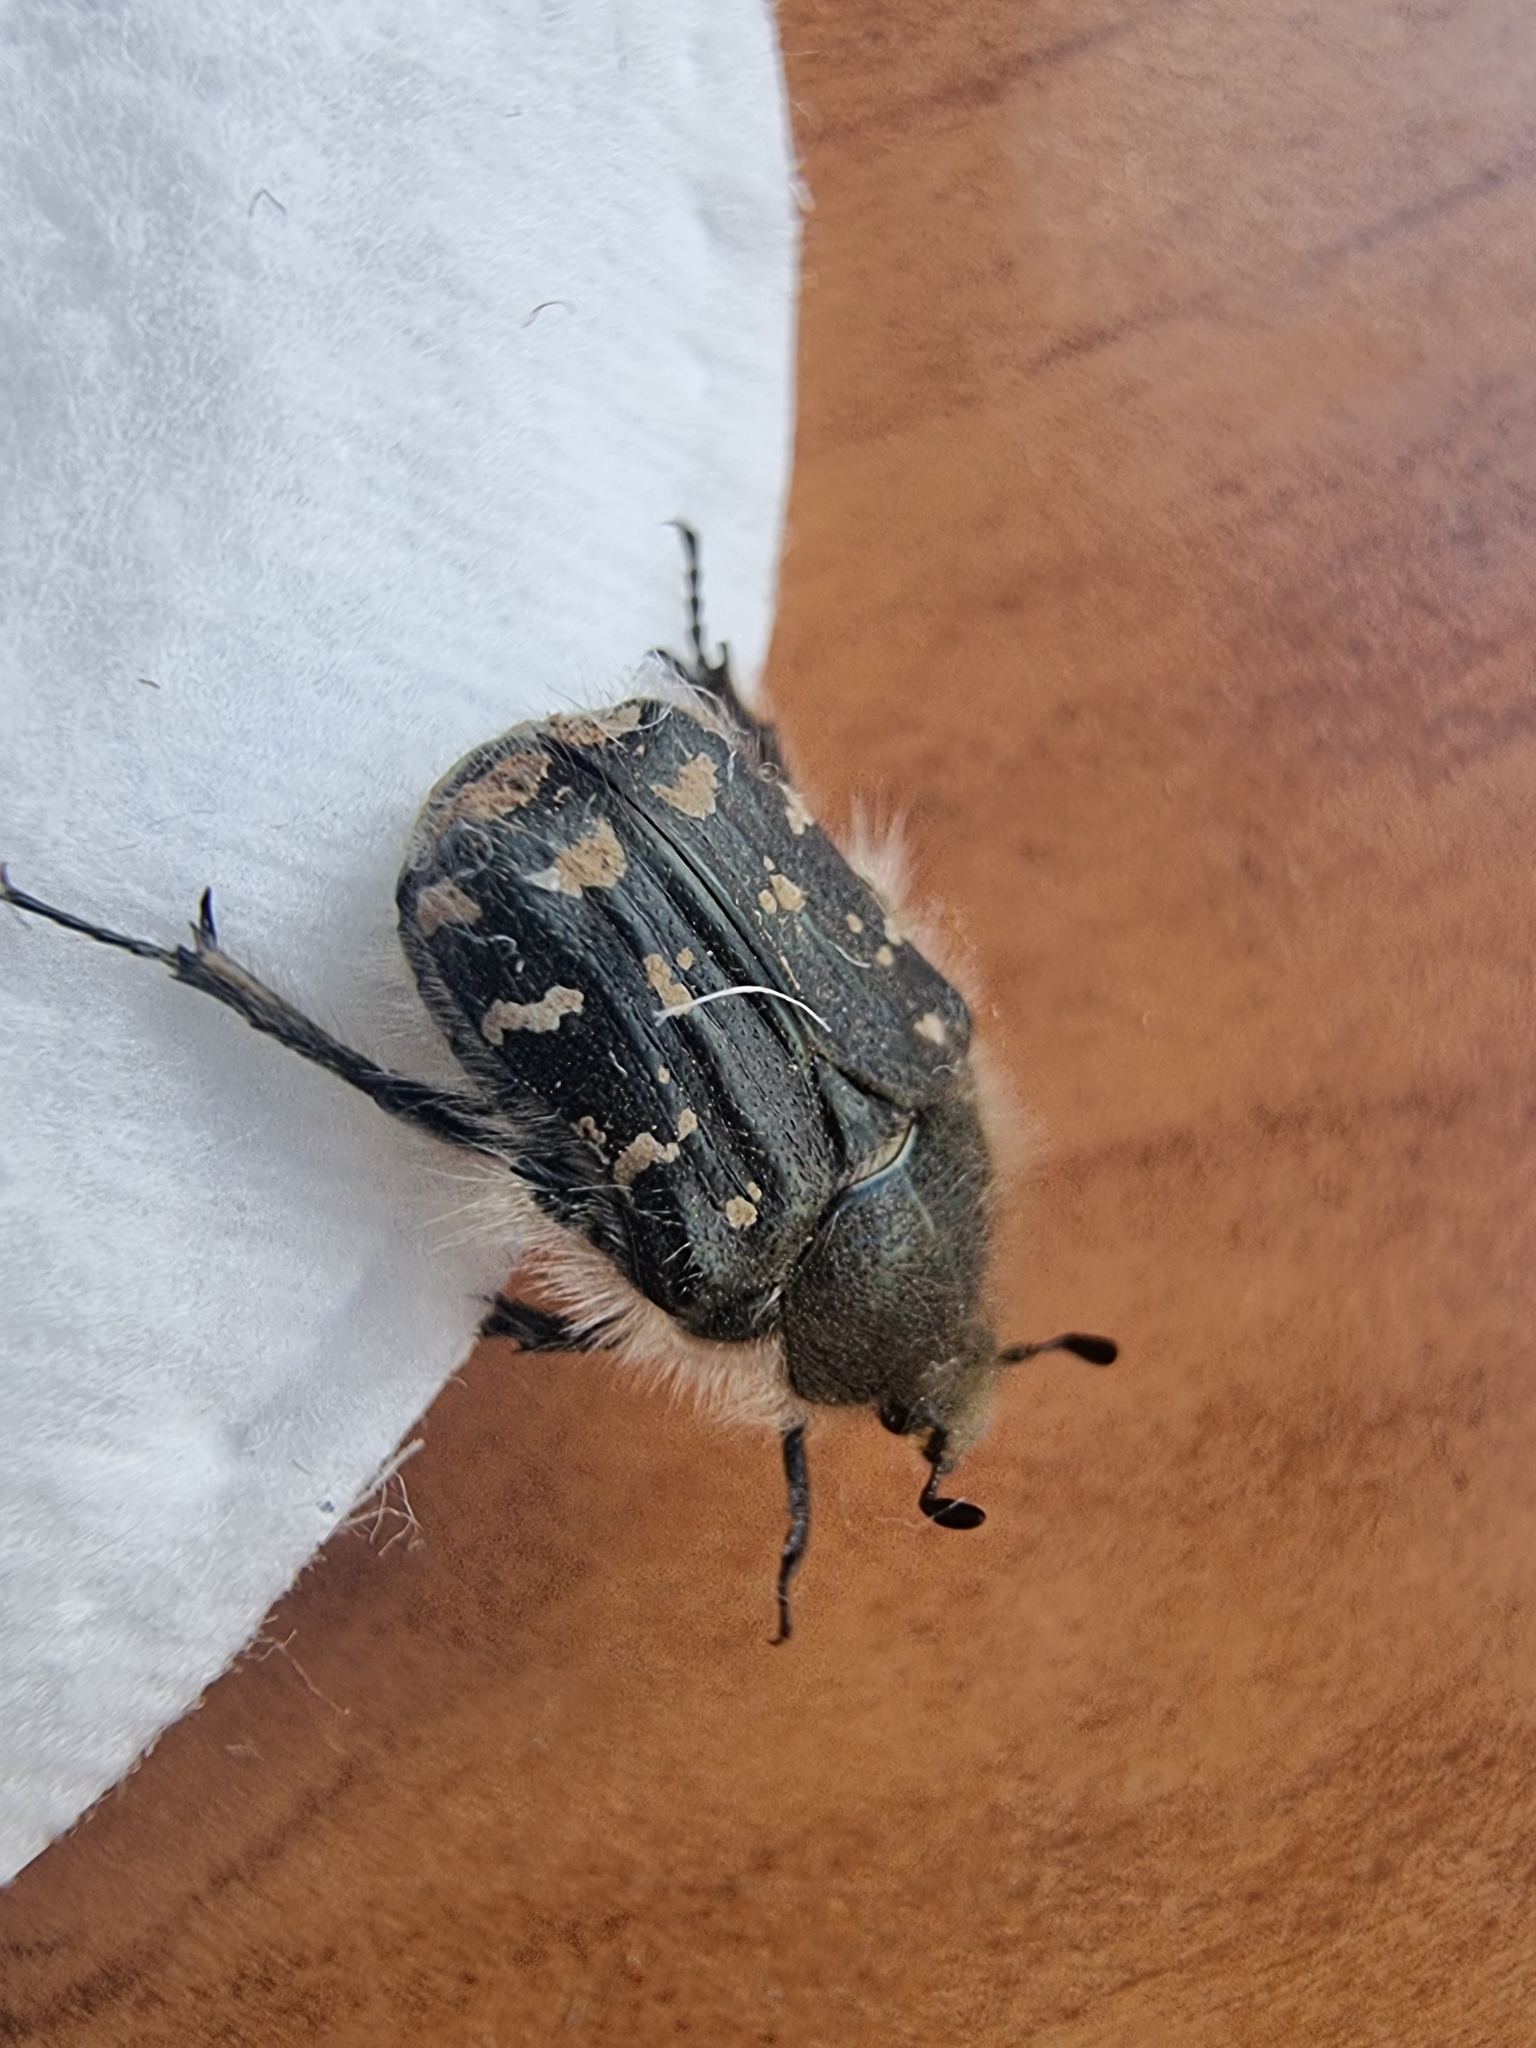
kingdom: Animalia
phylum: Arthropoda
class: Insecta
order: Coleoptera
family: Scarabaeidae
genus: Tropinota
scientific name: Tropinota hirta
